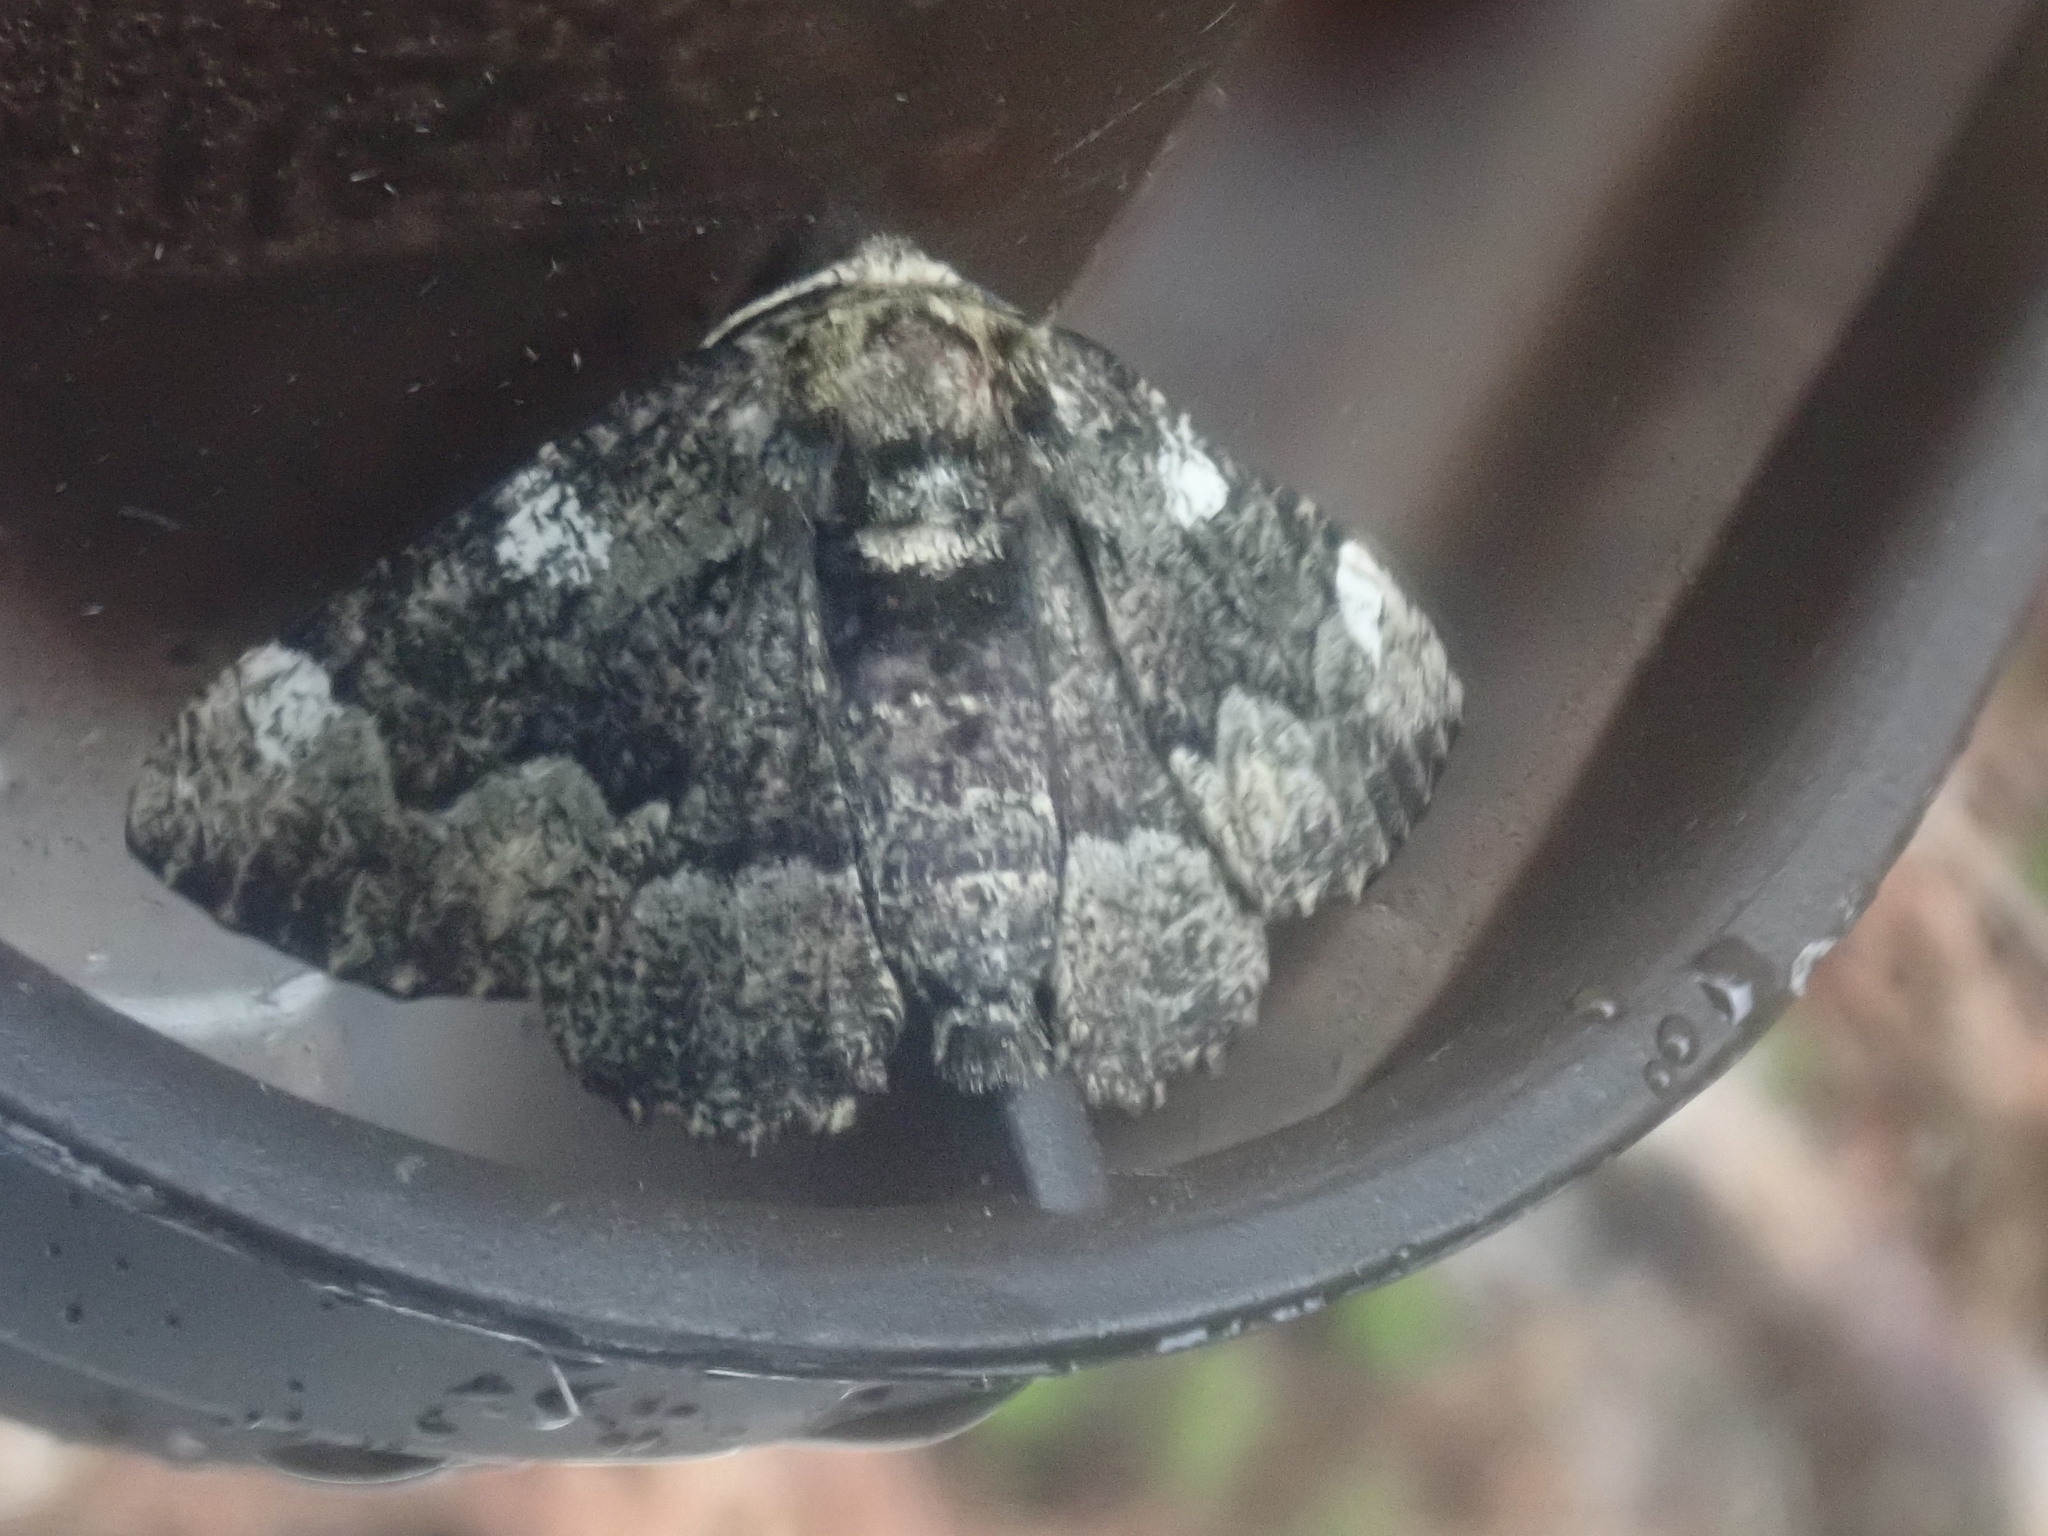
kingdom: Animalia
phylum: Arthropoda
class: Insecta
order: Lepidoptera
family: Geometridae
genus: Phaeoura
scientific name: Phaeoura quernaria
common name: Oak beauty
